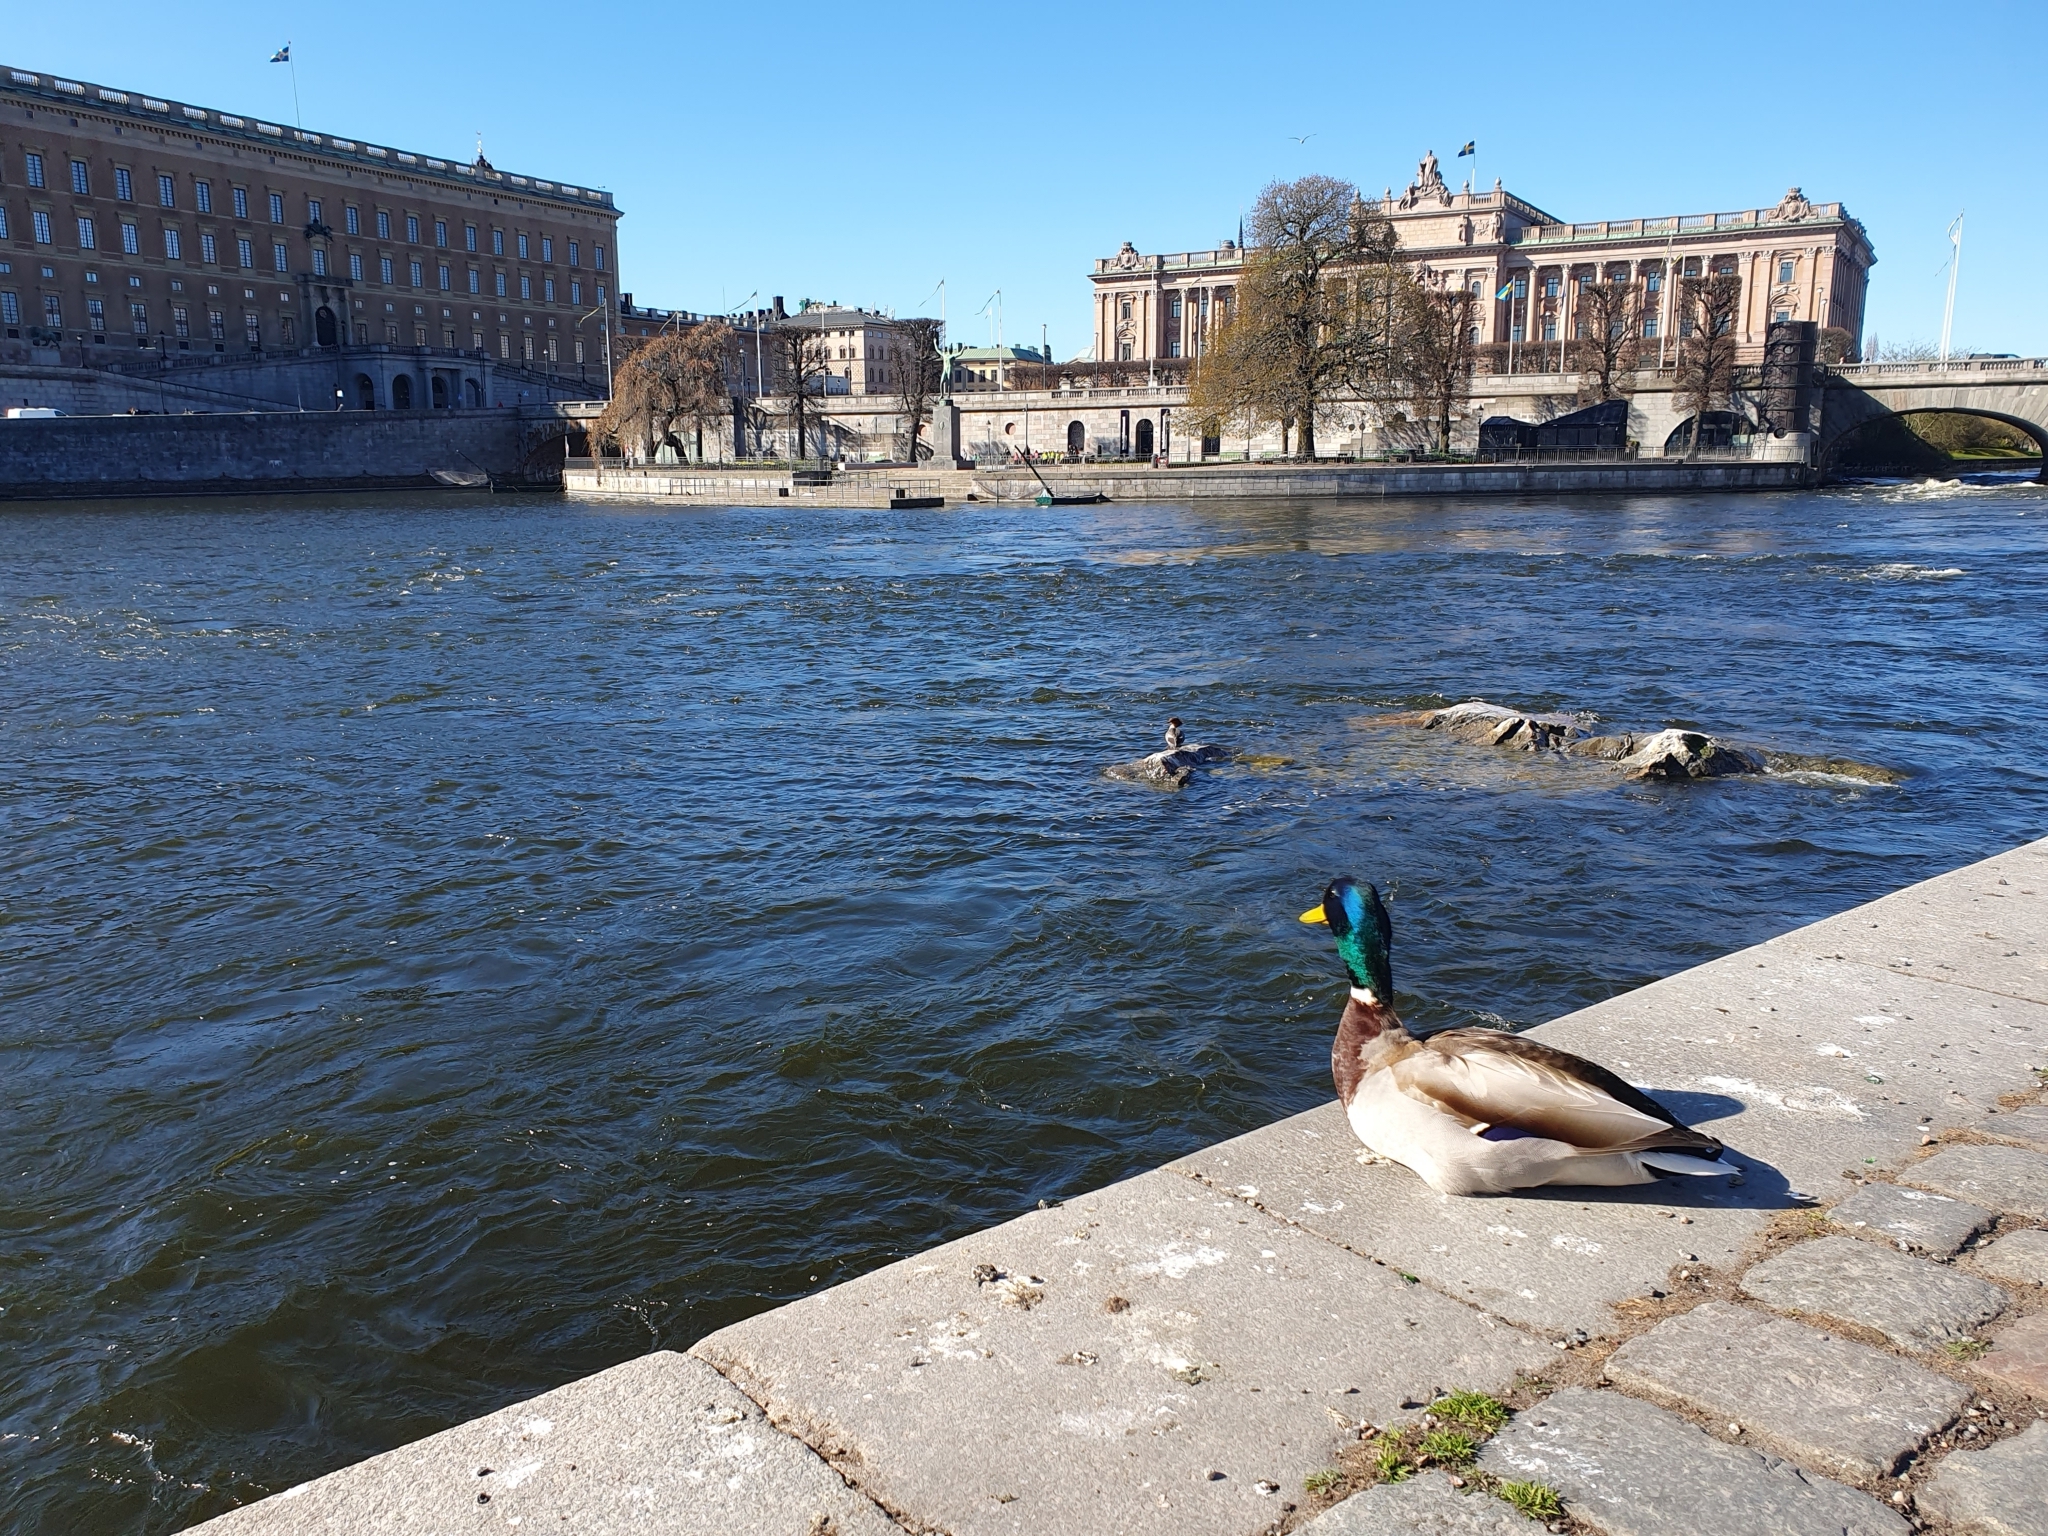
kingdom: Animalia
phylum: Chordata
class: Aves
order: Anseriformes
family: Anatidae
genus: Anas
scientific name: Anas platyrhynchos
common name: Mallard
